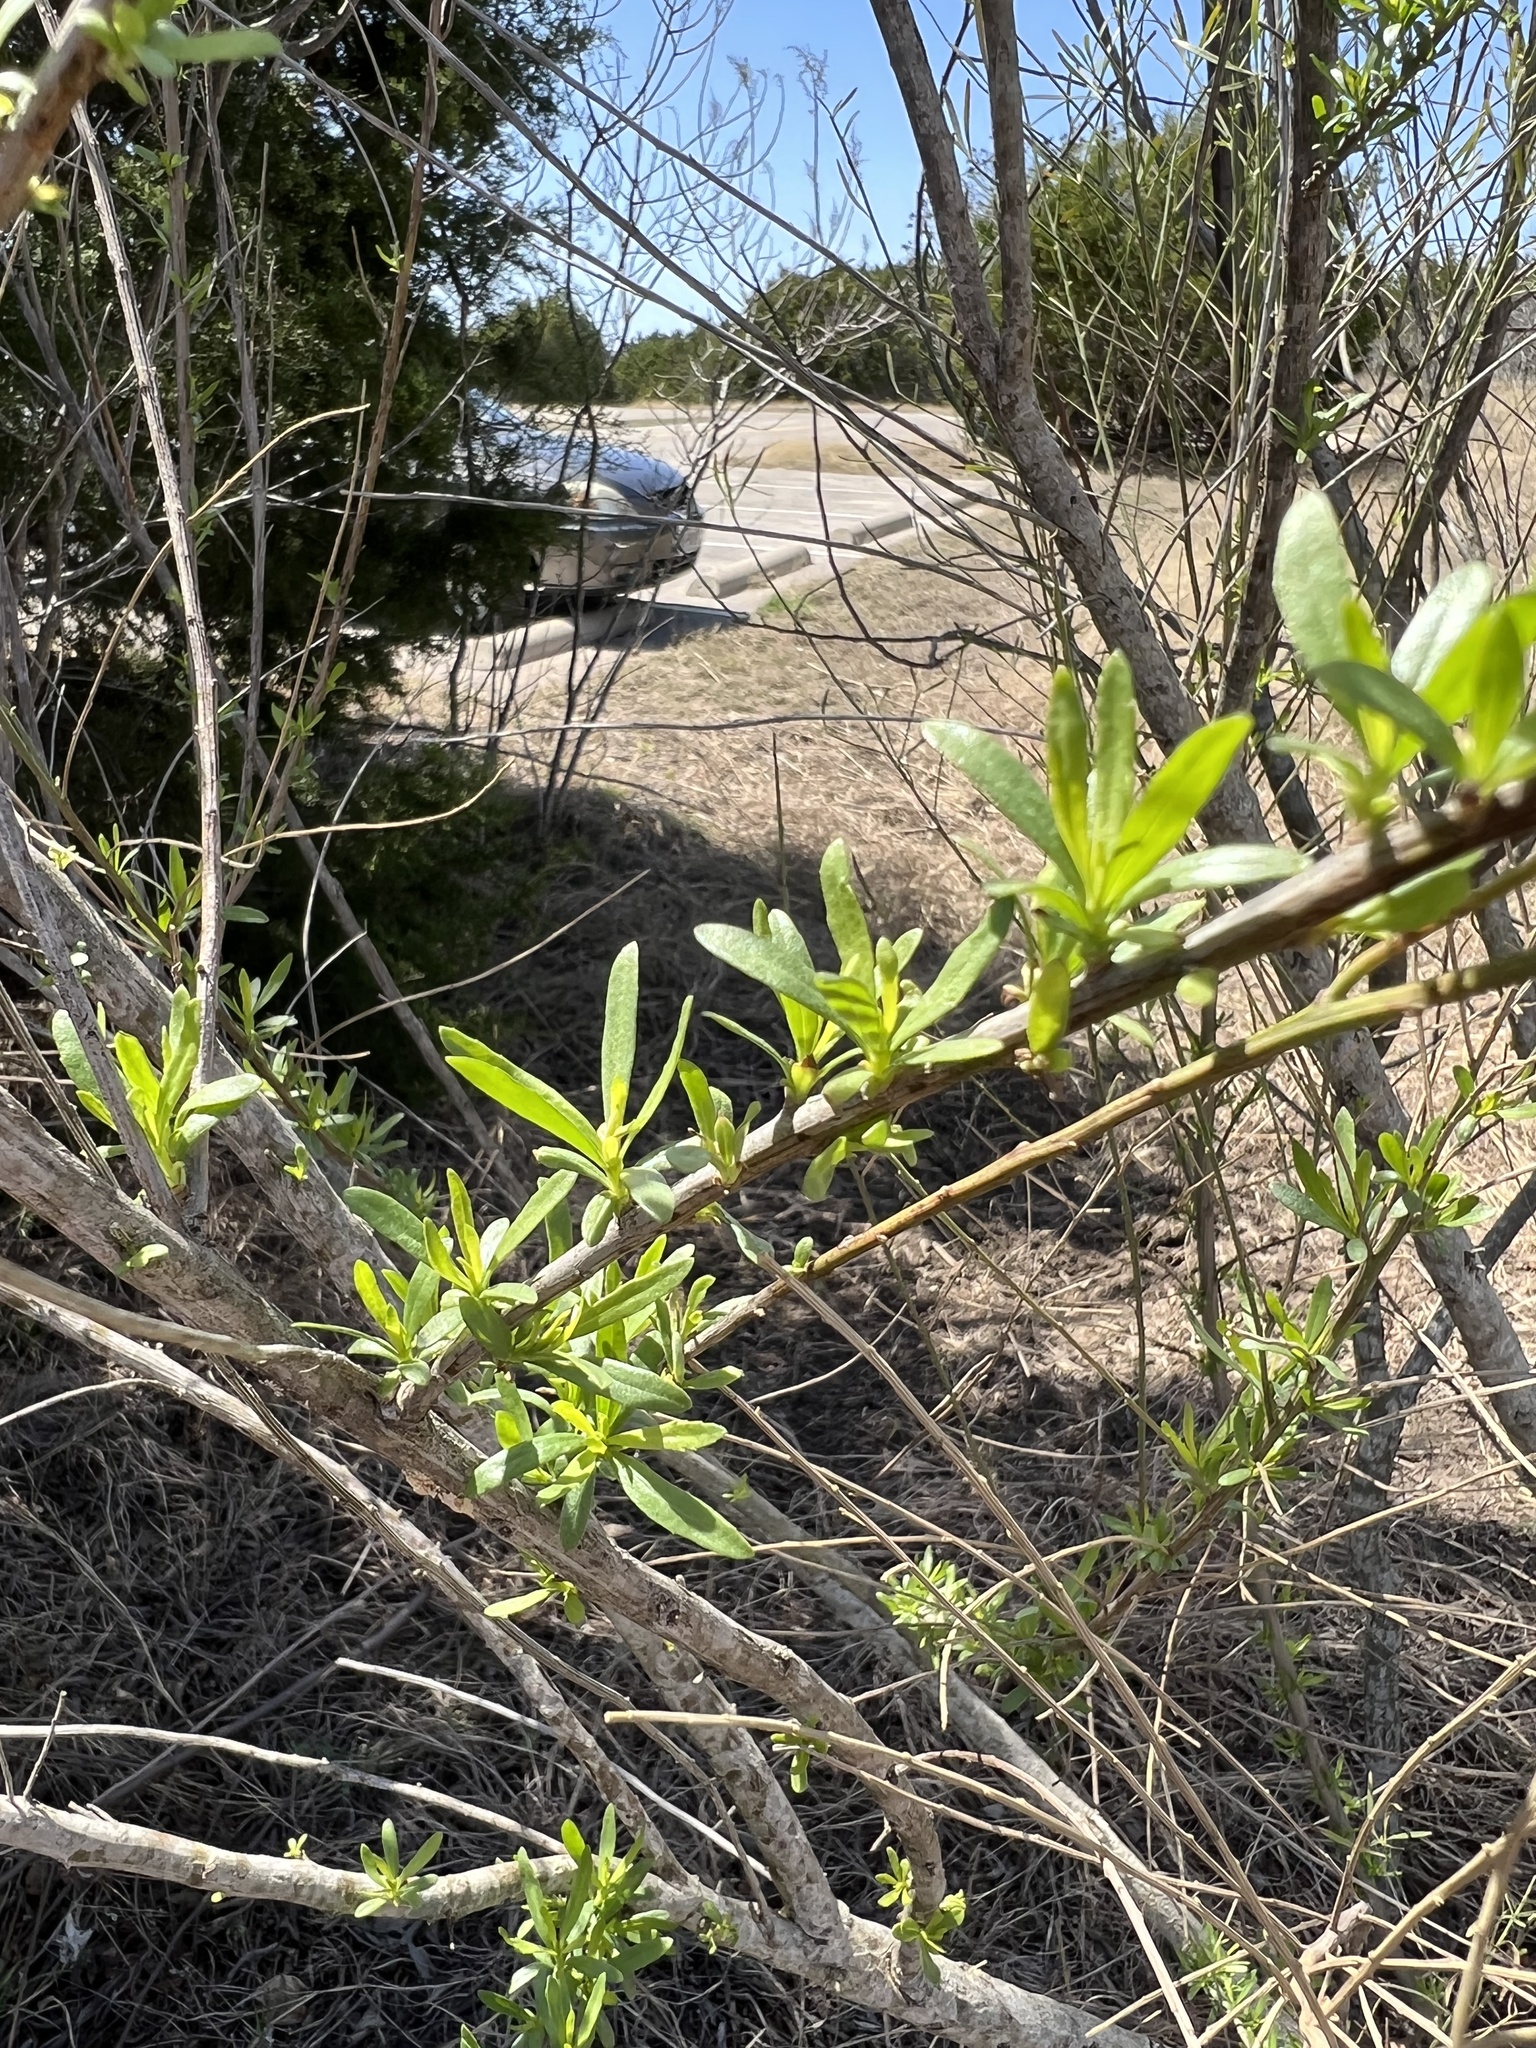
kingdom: Plantae
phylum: Tracheophyta
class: Magnoliopsida
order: Asterales
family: Asteraceae
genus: Baccharis
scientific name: Baccharis neglecta
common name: Roosevelt-weed
